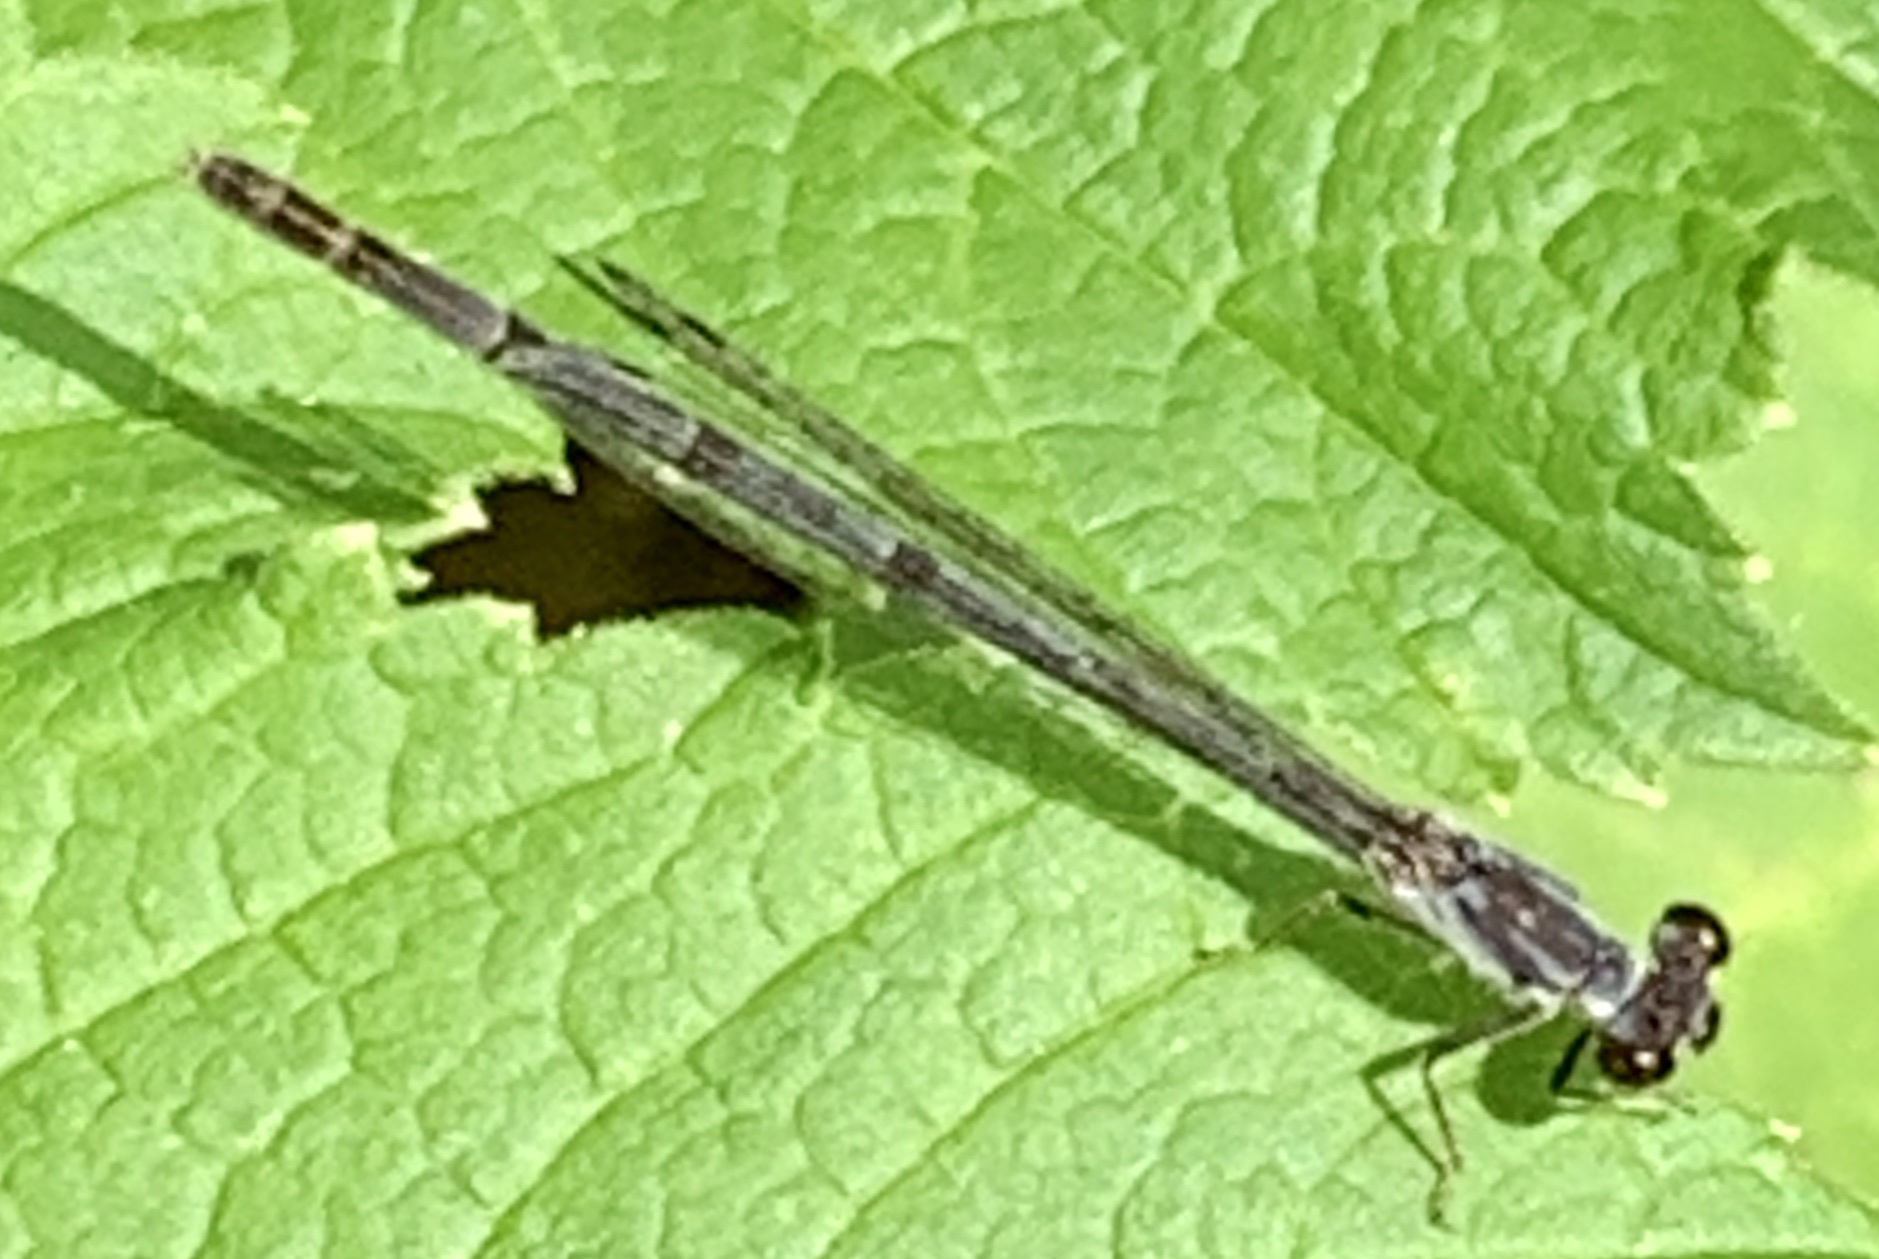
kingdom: Animalia
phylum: Arthropoda
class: Insecta
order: Odonata
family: Coenagrionidae
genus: Ischnura
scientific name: Ischnura posita
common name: Fragile forktail
